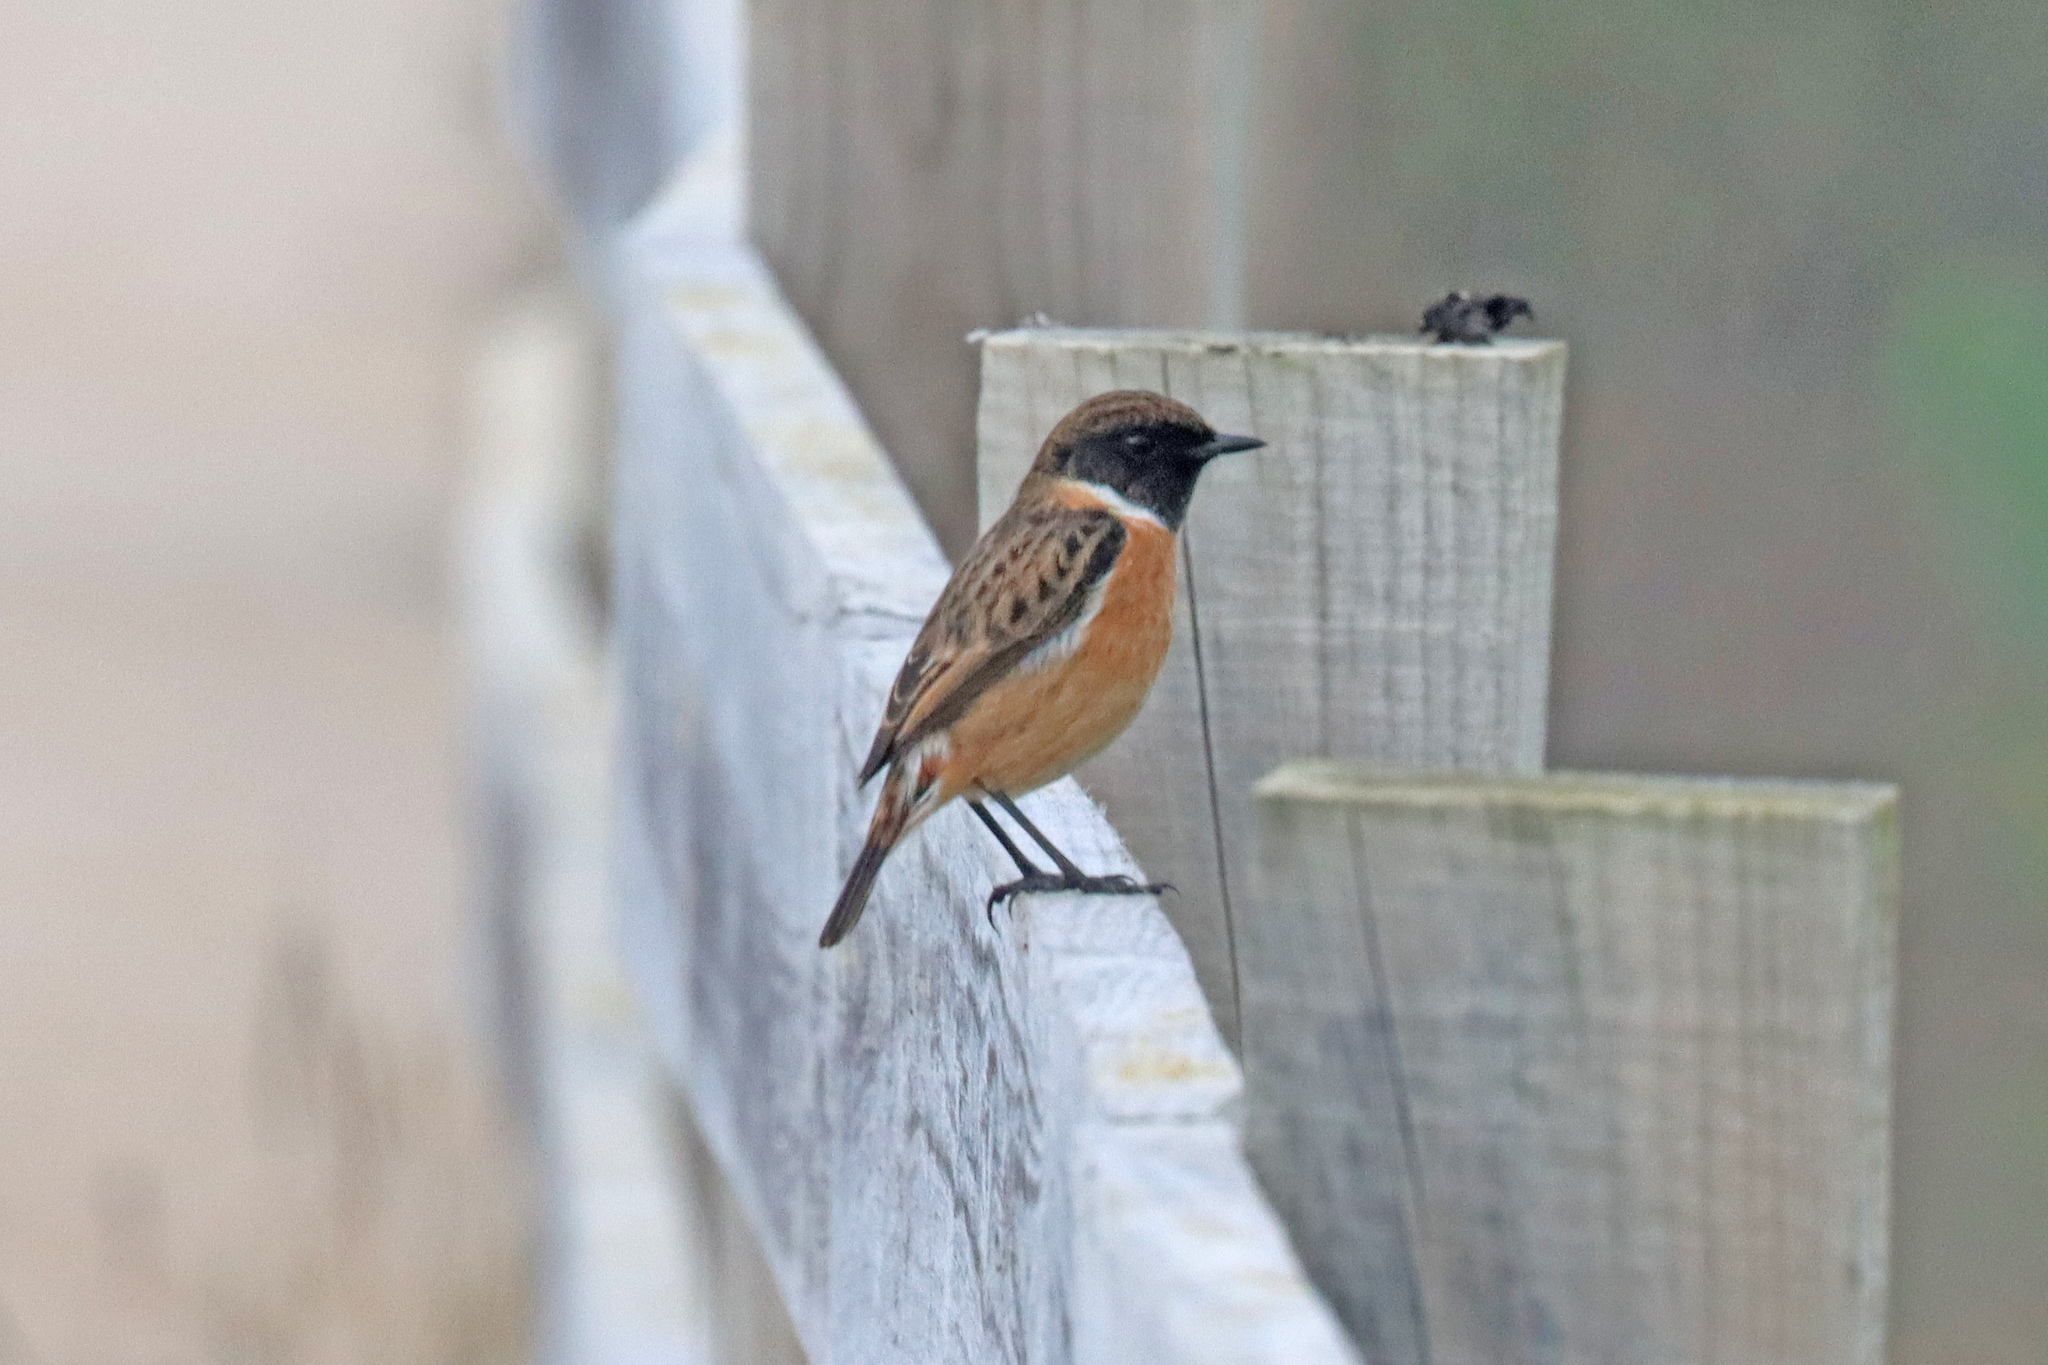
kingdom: Animalia
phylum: Chordata
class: Aves
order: Passeriformes
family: Muscicapidae
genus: Saxicola
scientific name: Saxicola rubicola
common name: European stonechat
